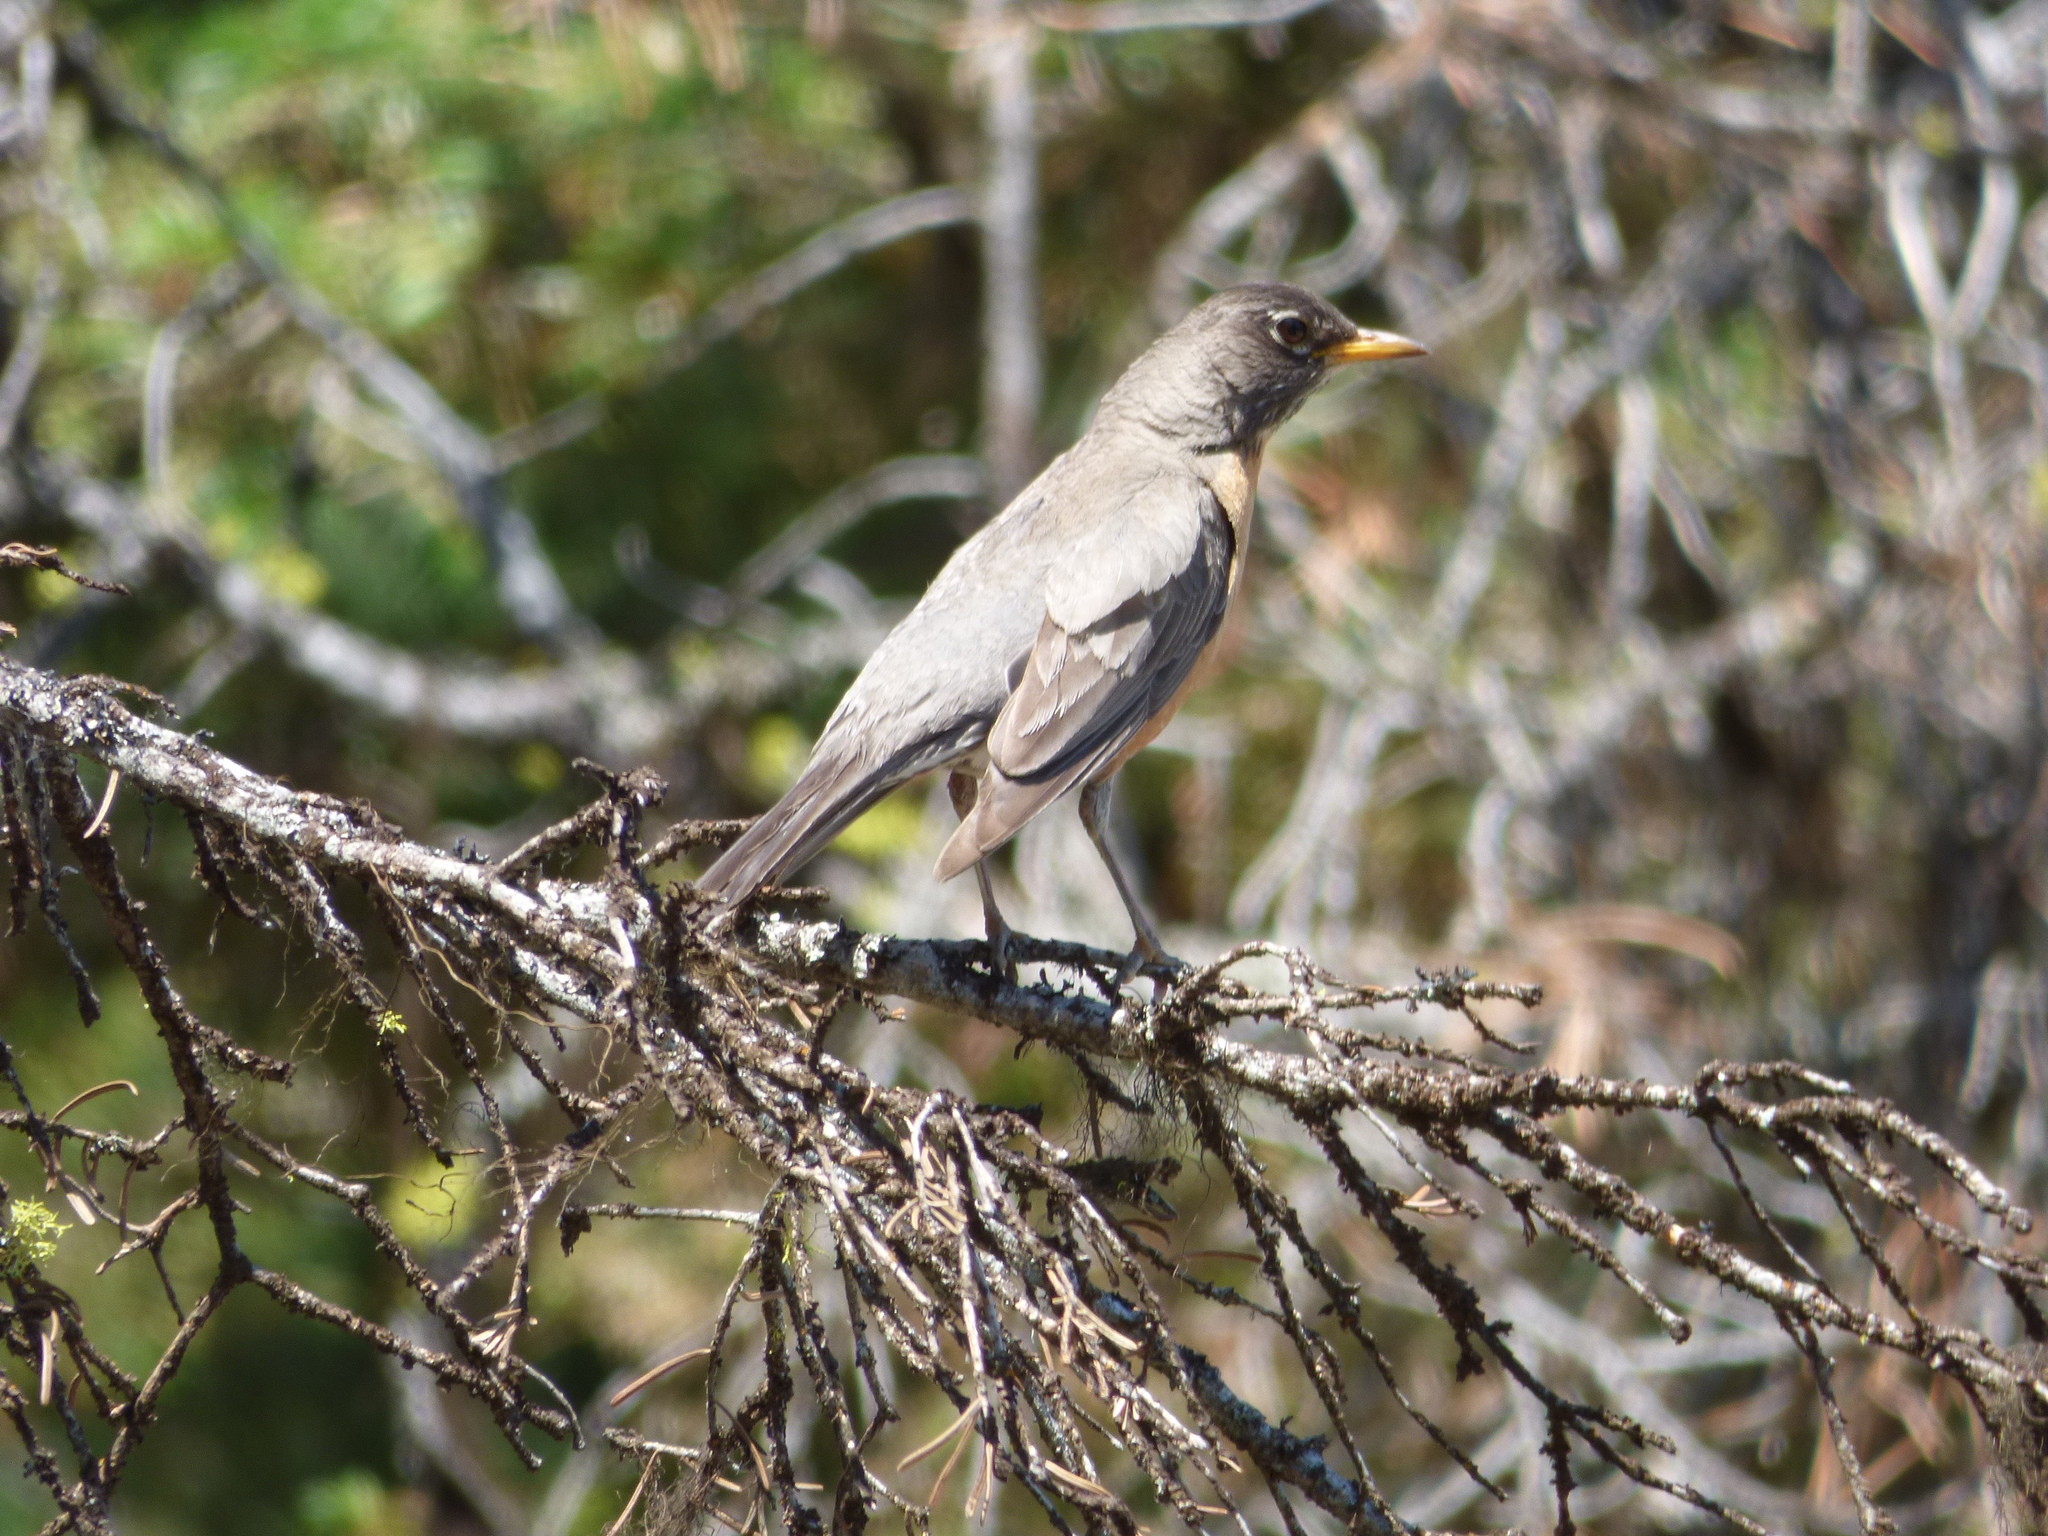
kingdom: Animalia
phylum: Chordata
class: Aves
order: Passeriformes
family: Turdidae
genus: Turdus
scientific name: Turdus migratorius
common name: American robin
